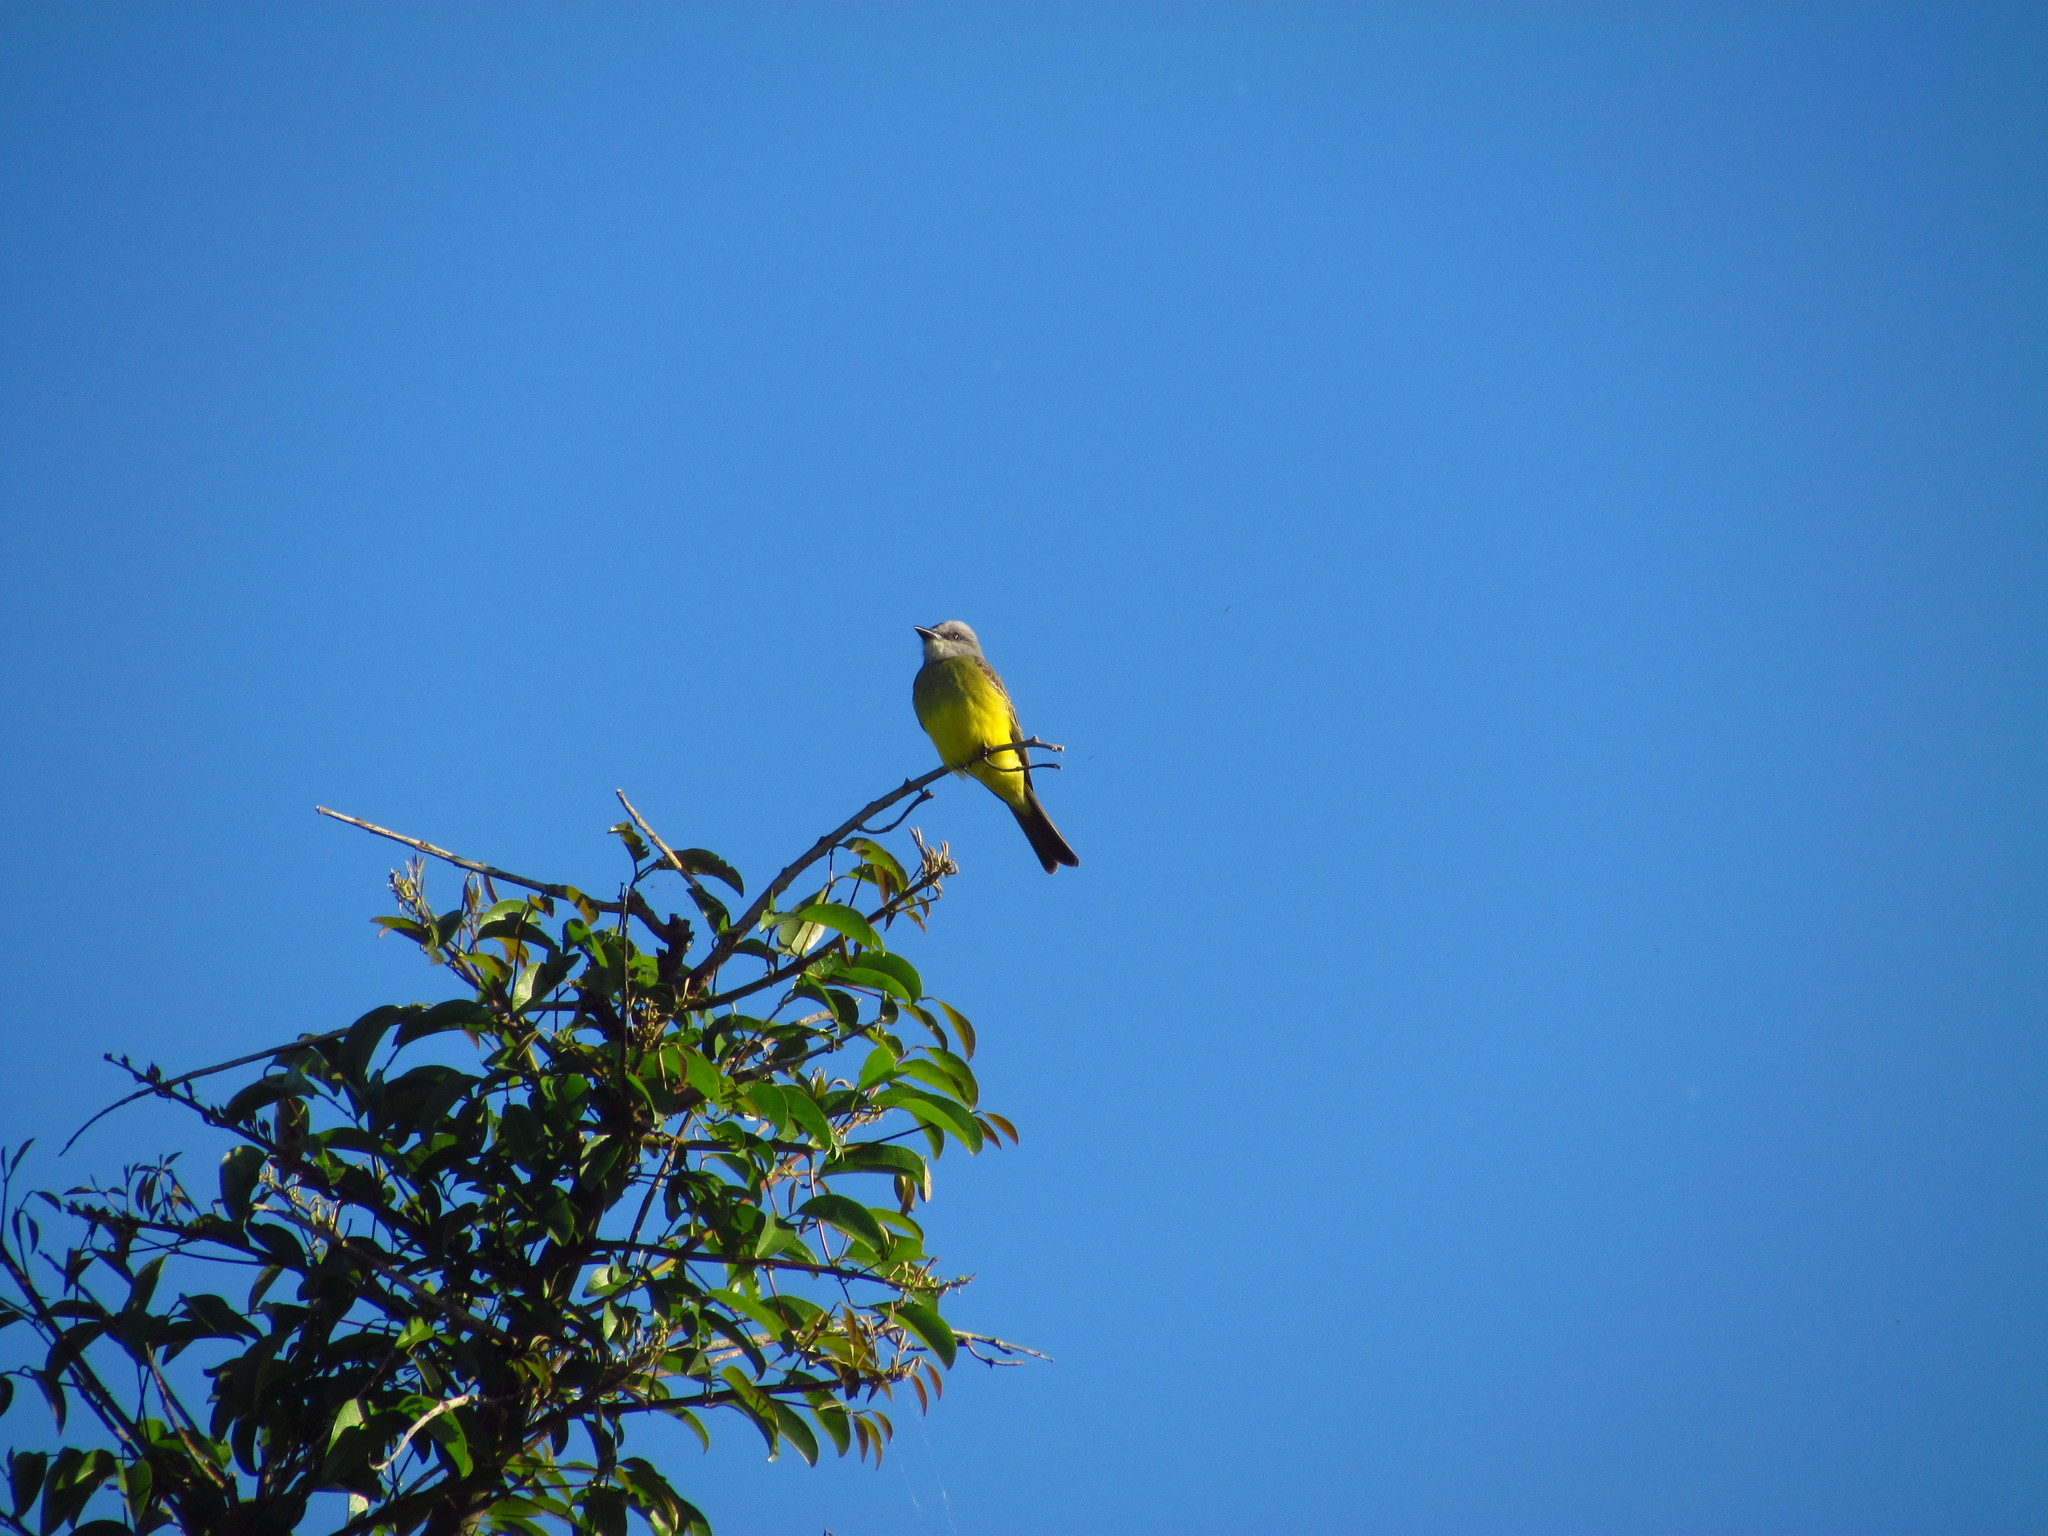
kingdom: Animalia
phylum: Chordata
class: Aves
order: Passeriformes
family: Tyrannidae
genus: Tyrannus
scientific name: Tyrannus melancholicus
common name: Tropical kingbird
